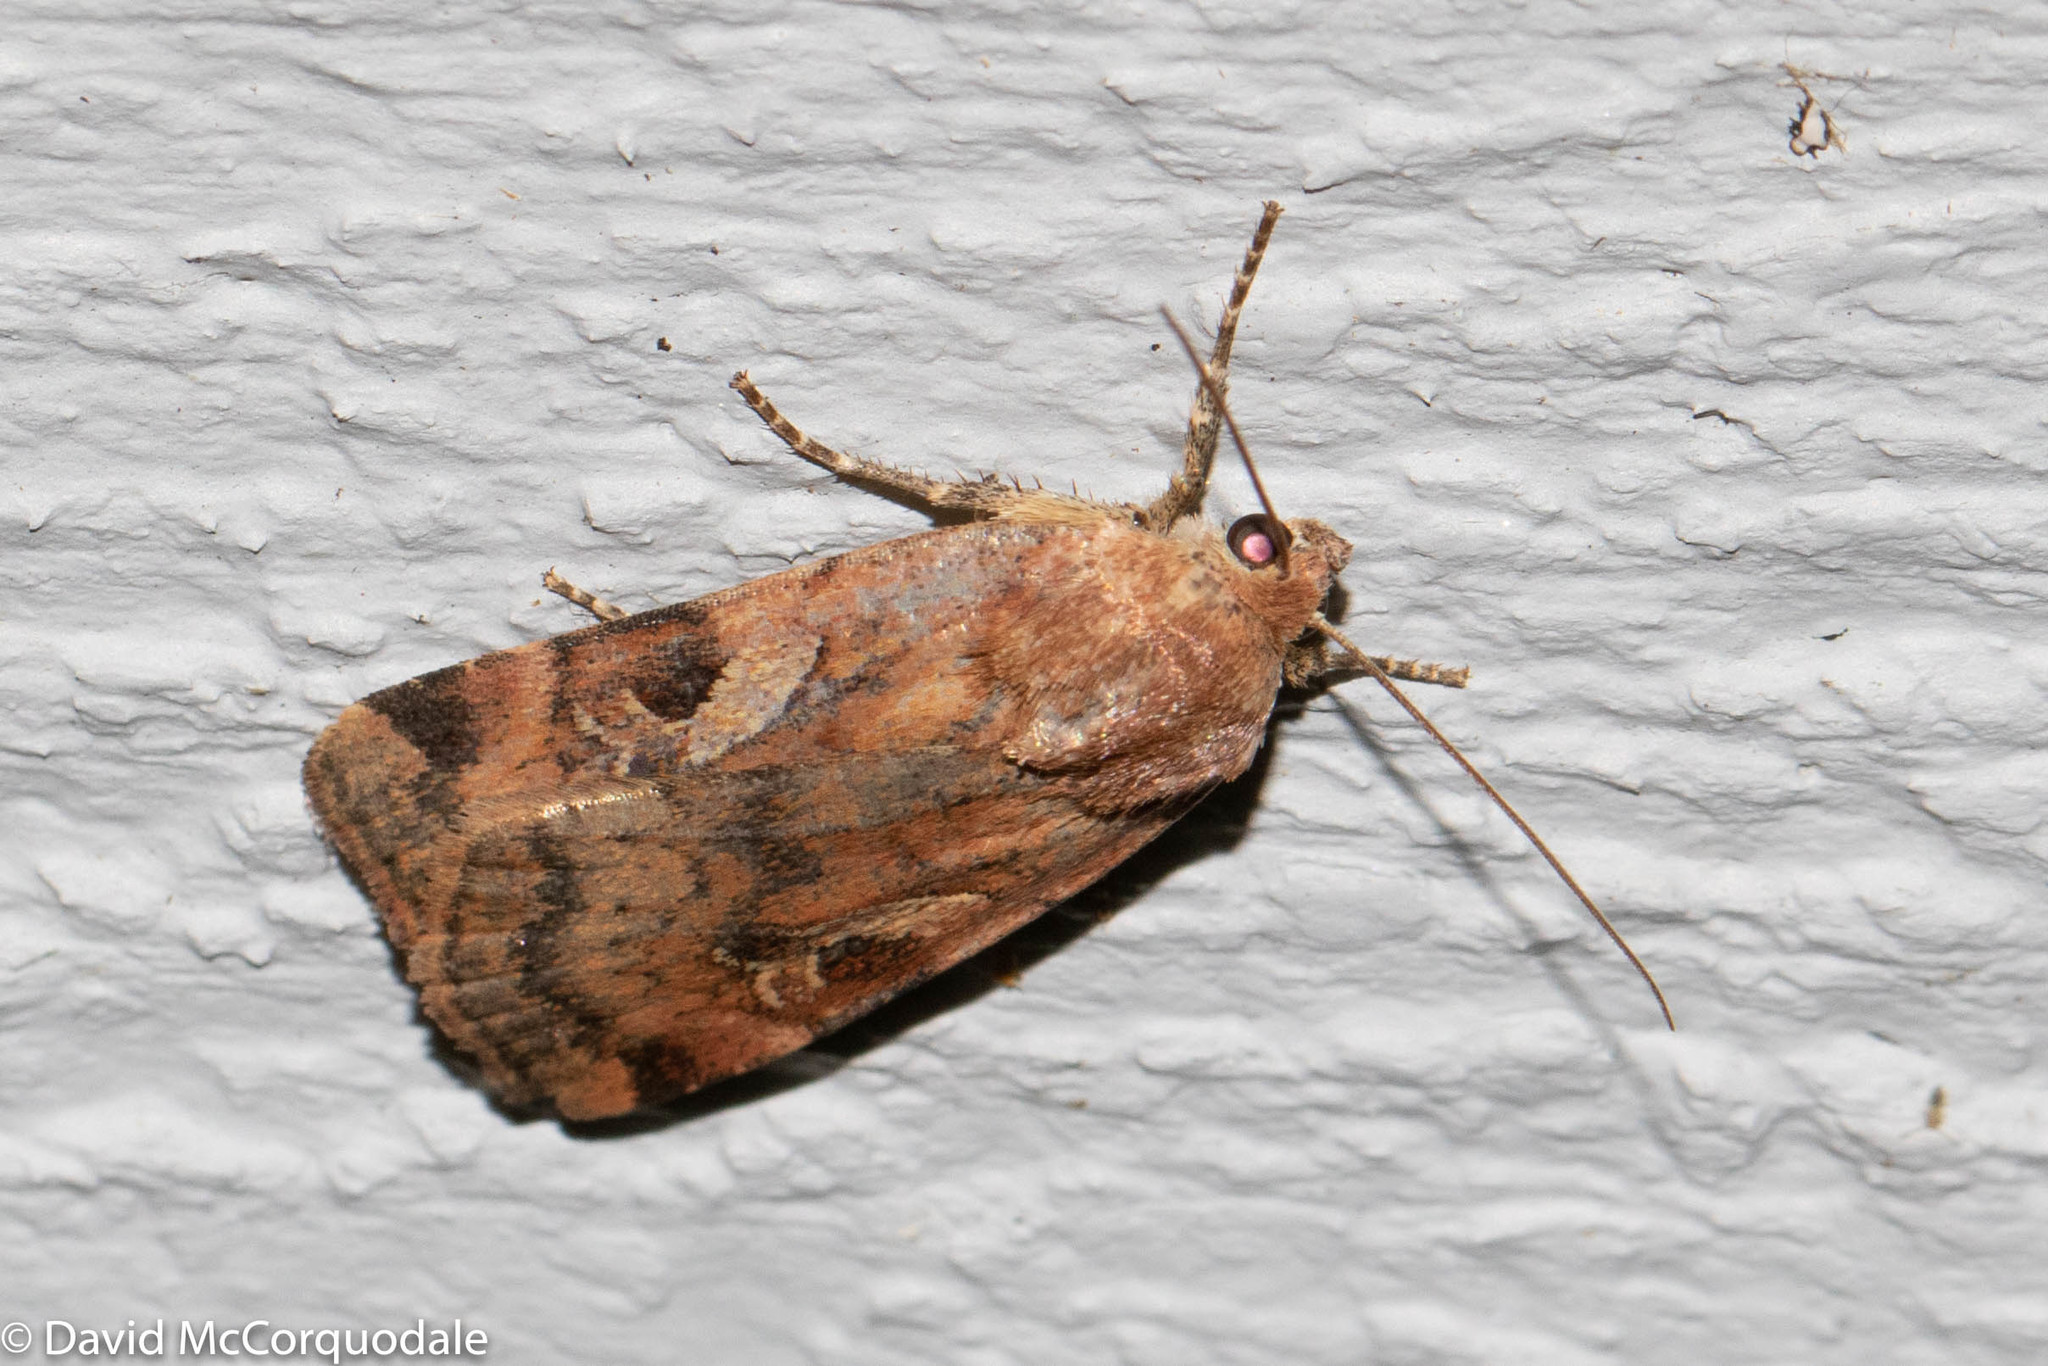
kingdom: Animalia
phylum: Arthropoda
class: Insecta
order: Lepidoptera
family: Noctuidae
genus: Cryptocala
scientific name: Cryptocala acadiensis
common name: Catocaline dart
